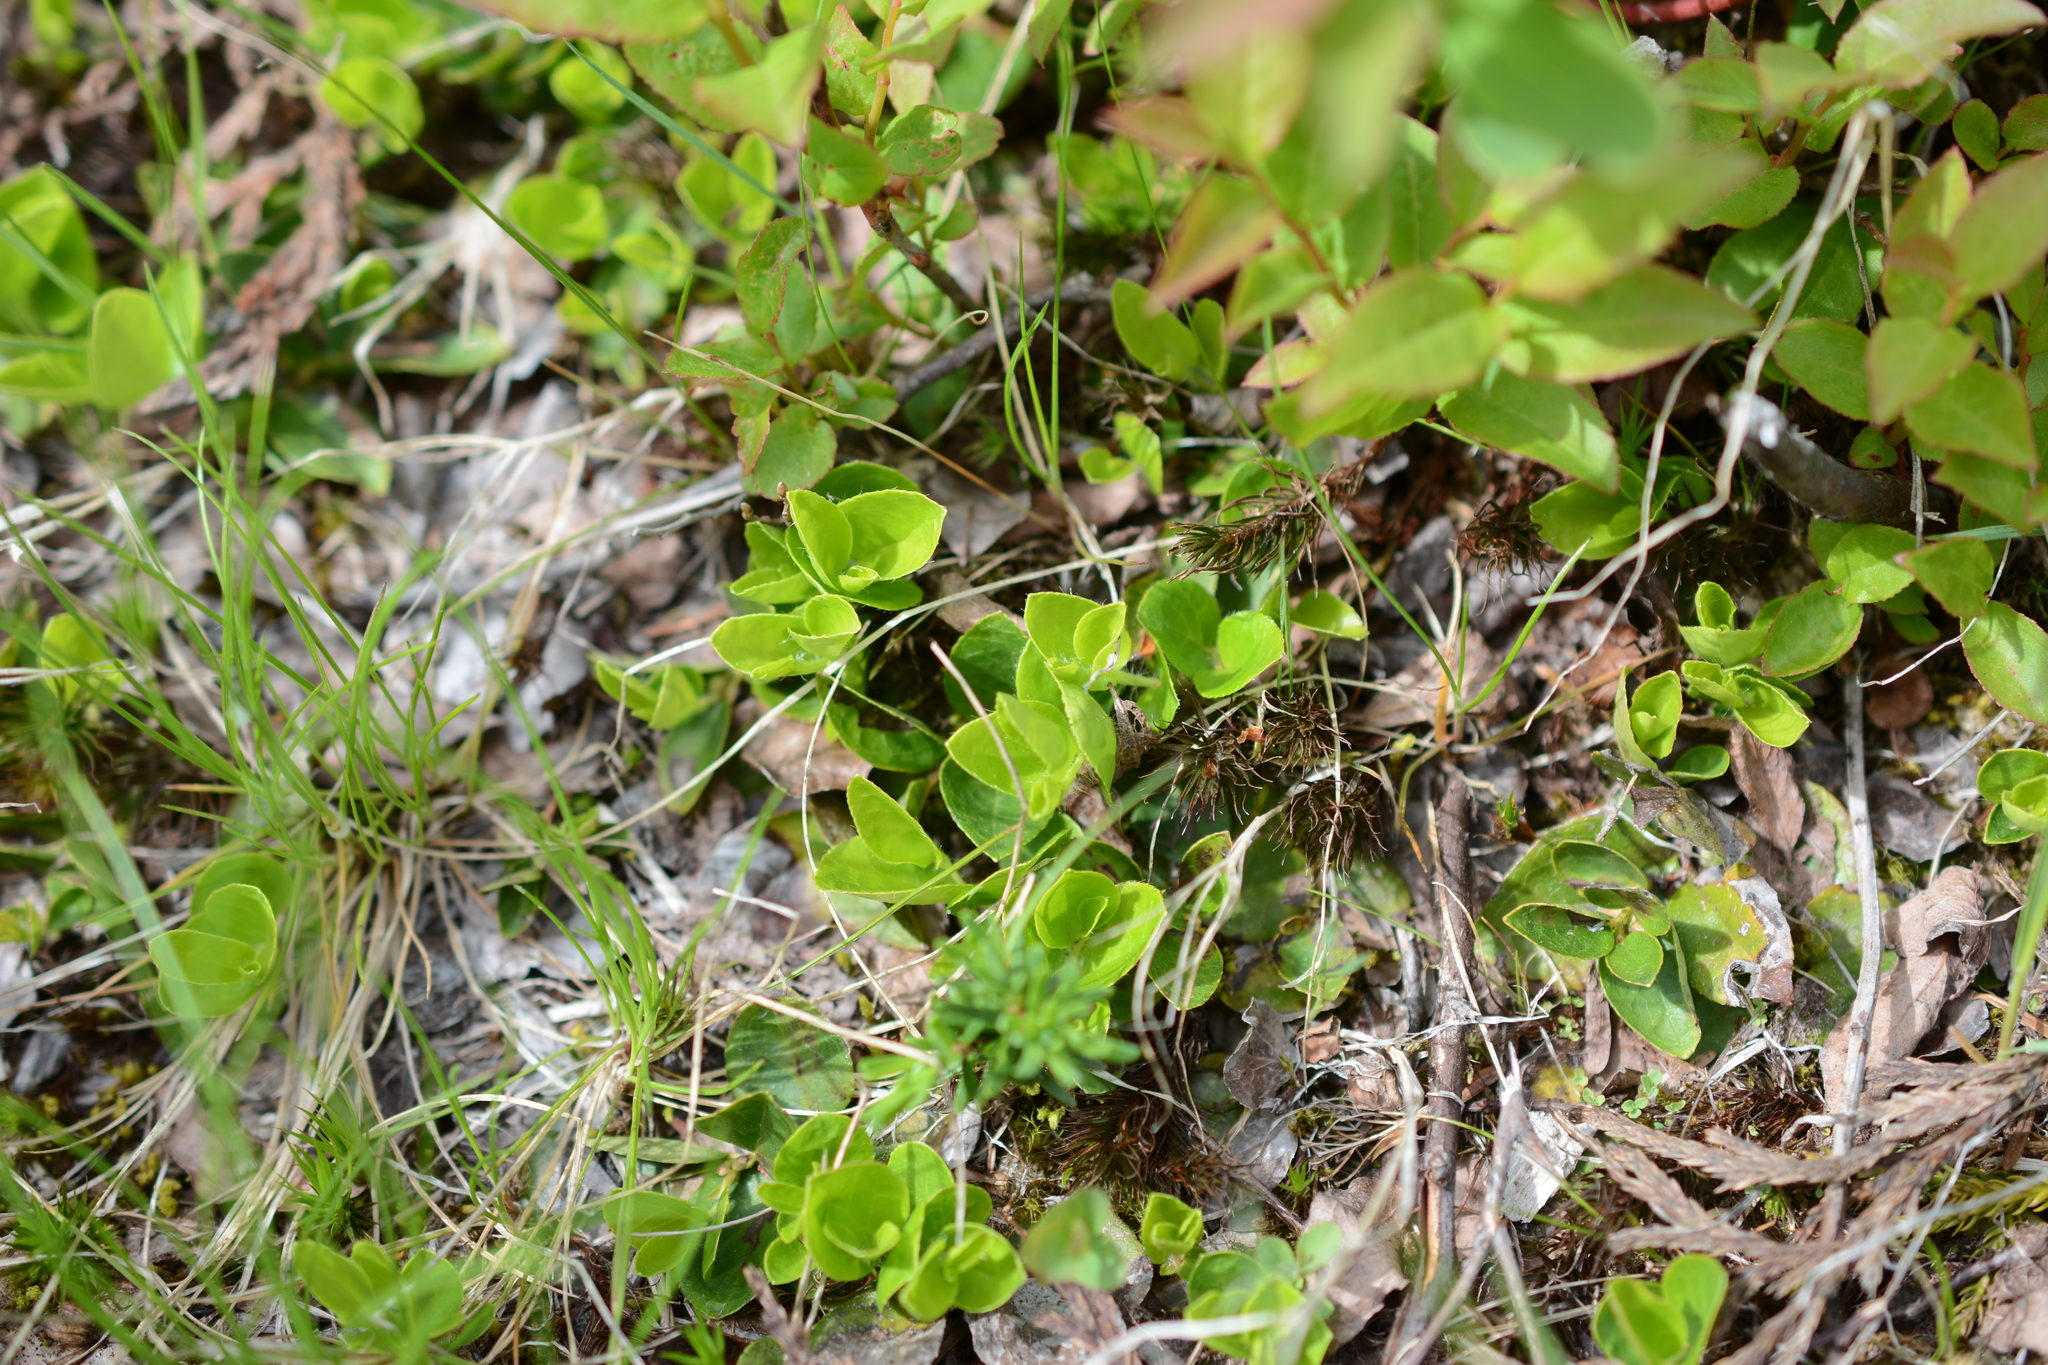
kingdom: Plantae
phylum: Tracheophyta
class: Magnoliopsida
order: Ericales
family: Ericaceae
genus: Gaultheria
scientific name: Gaultheria ovatifolia
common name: Oregon wintergreen
